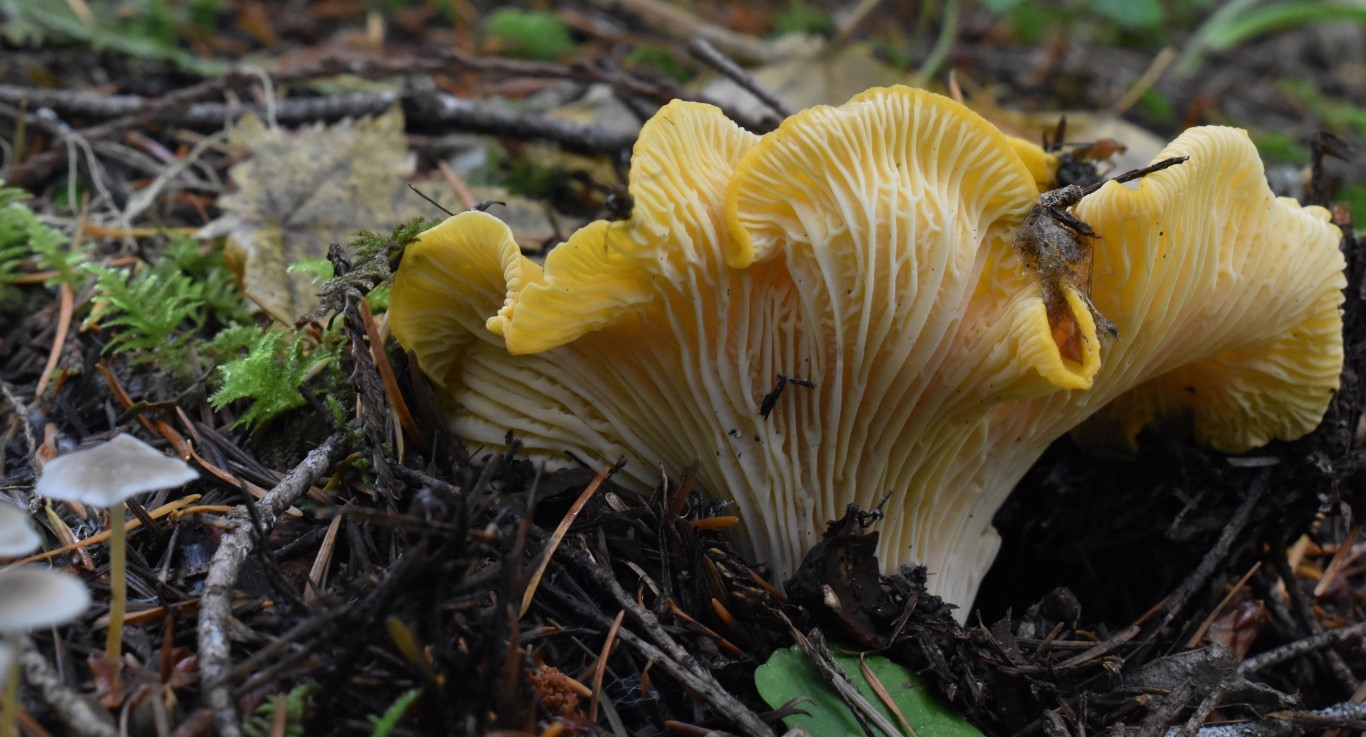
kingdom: Fungi
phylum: Basidiomycota
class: Agaricomycetes
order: Cantharellales
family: Hydnaceae
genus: Cantharellus
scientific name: Cantharellus cascadensis
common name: Cascade chanterelle
